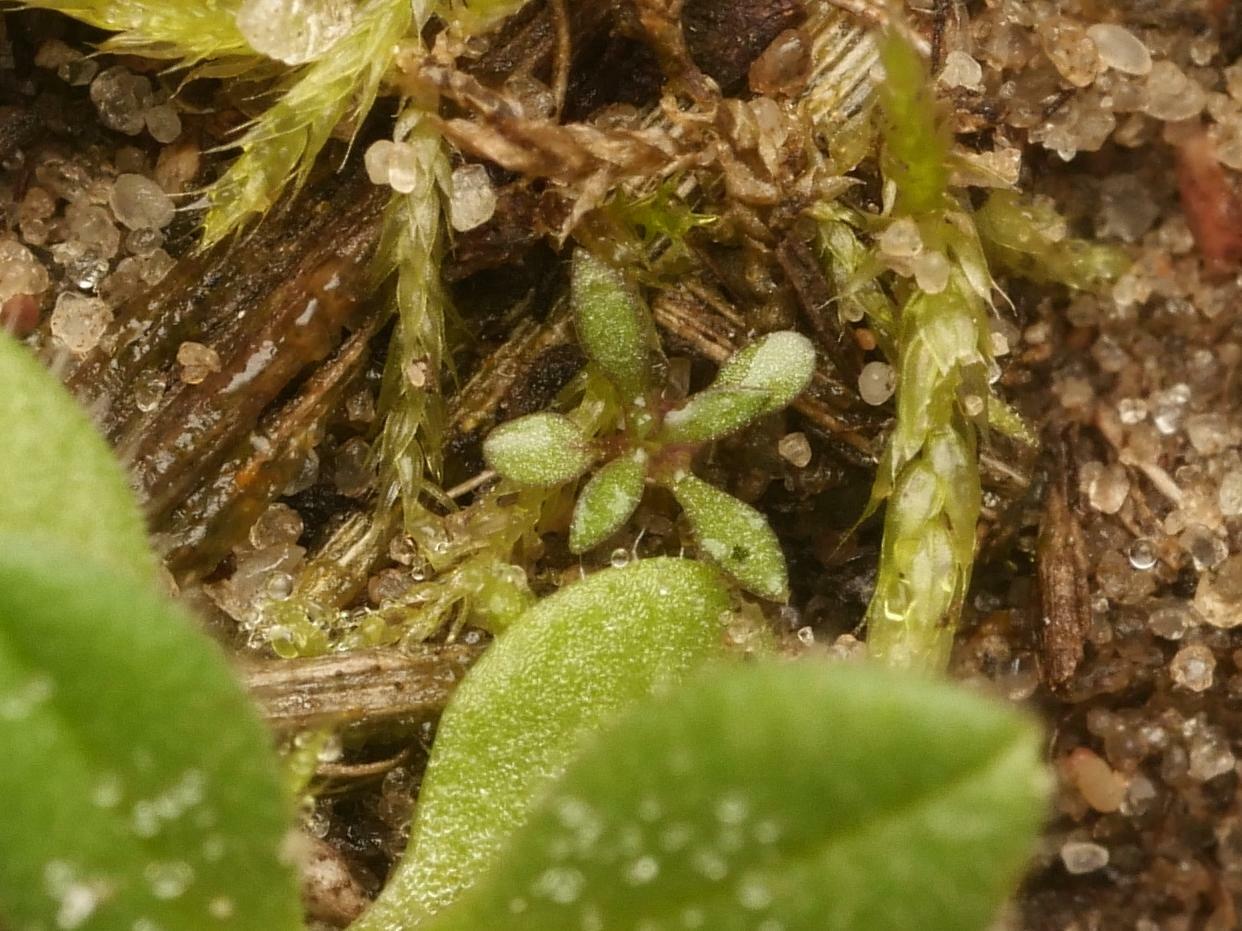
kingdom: Plantae
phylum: Tracheophyta
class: Magnoliopsida
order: Brassicales
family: Brassicaceae
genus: Draba
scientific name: Draba verna
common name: Spring draba
